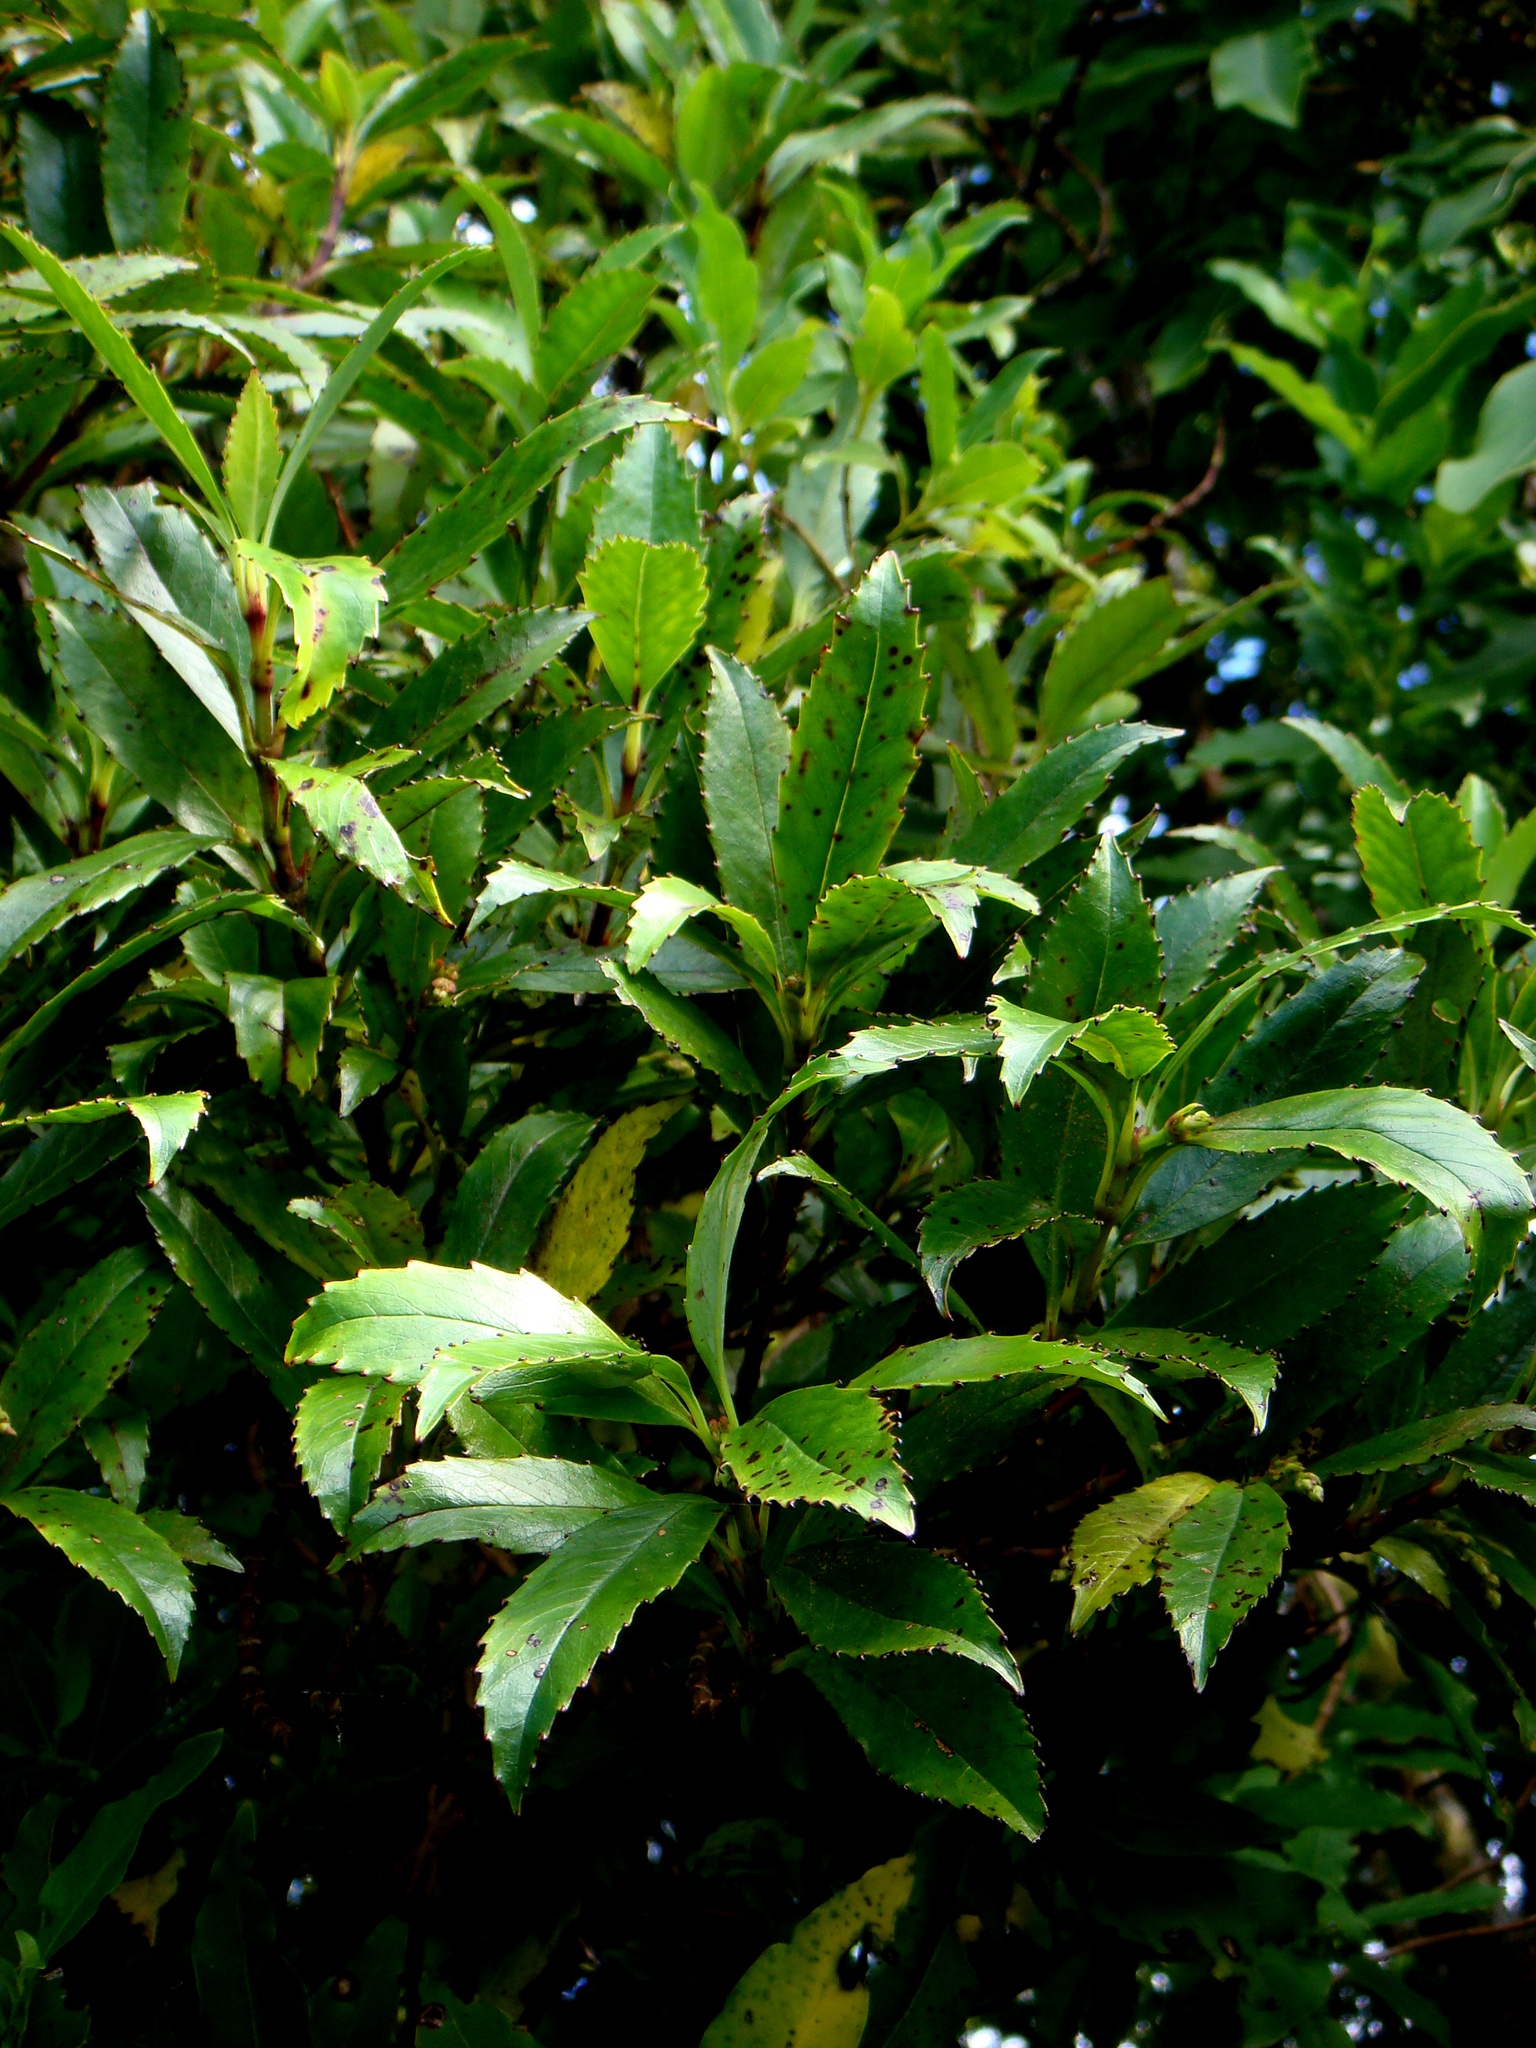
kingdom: Plantae
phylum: Tracheophyta
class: Magnoliopsida
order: Chloranthales
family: Chloranthaceae
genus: Ascarina
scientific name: Ascarina lucida
